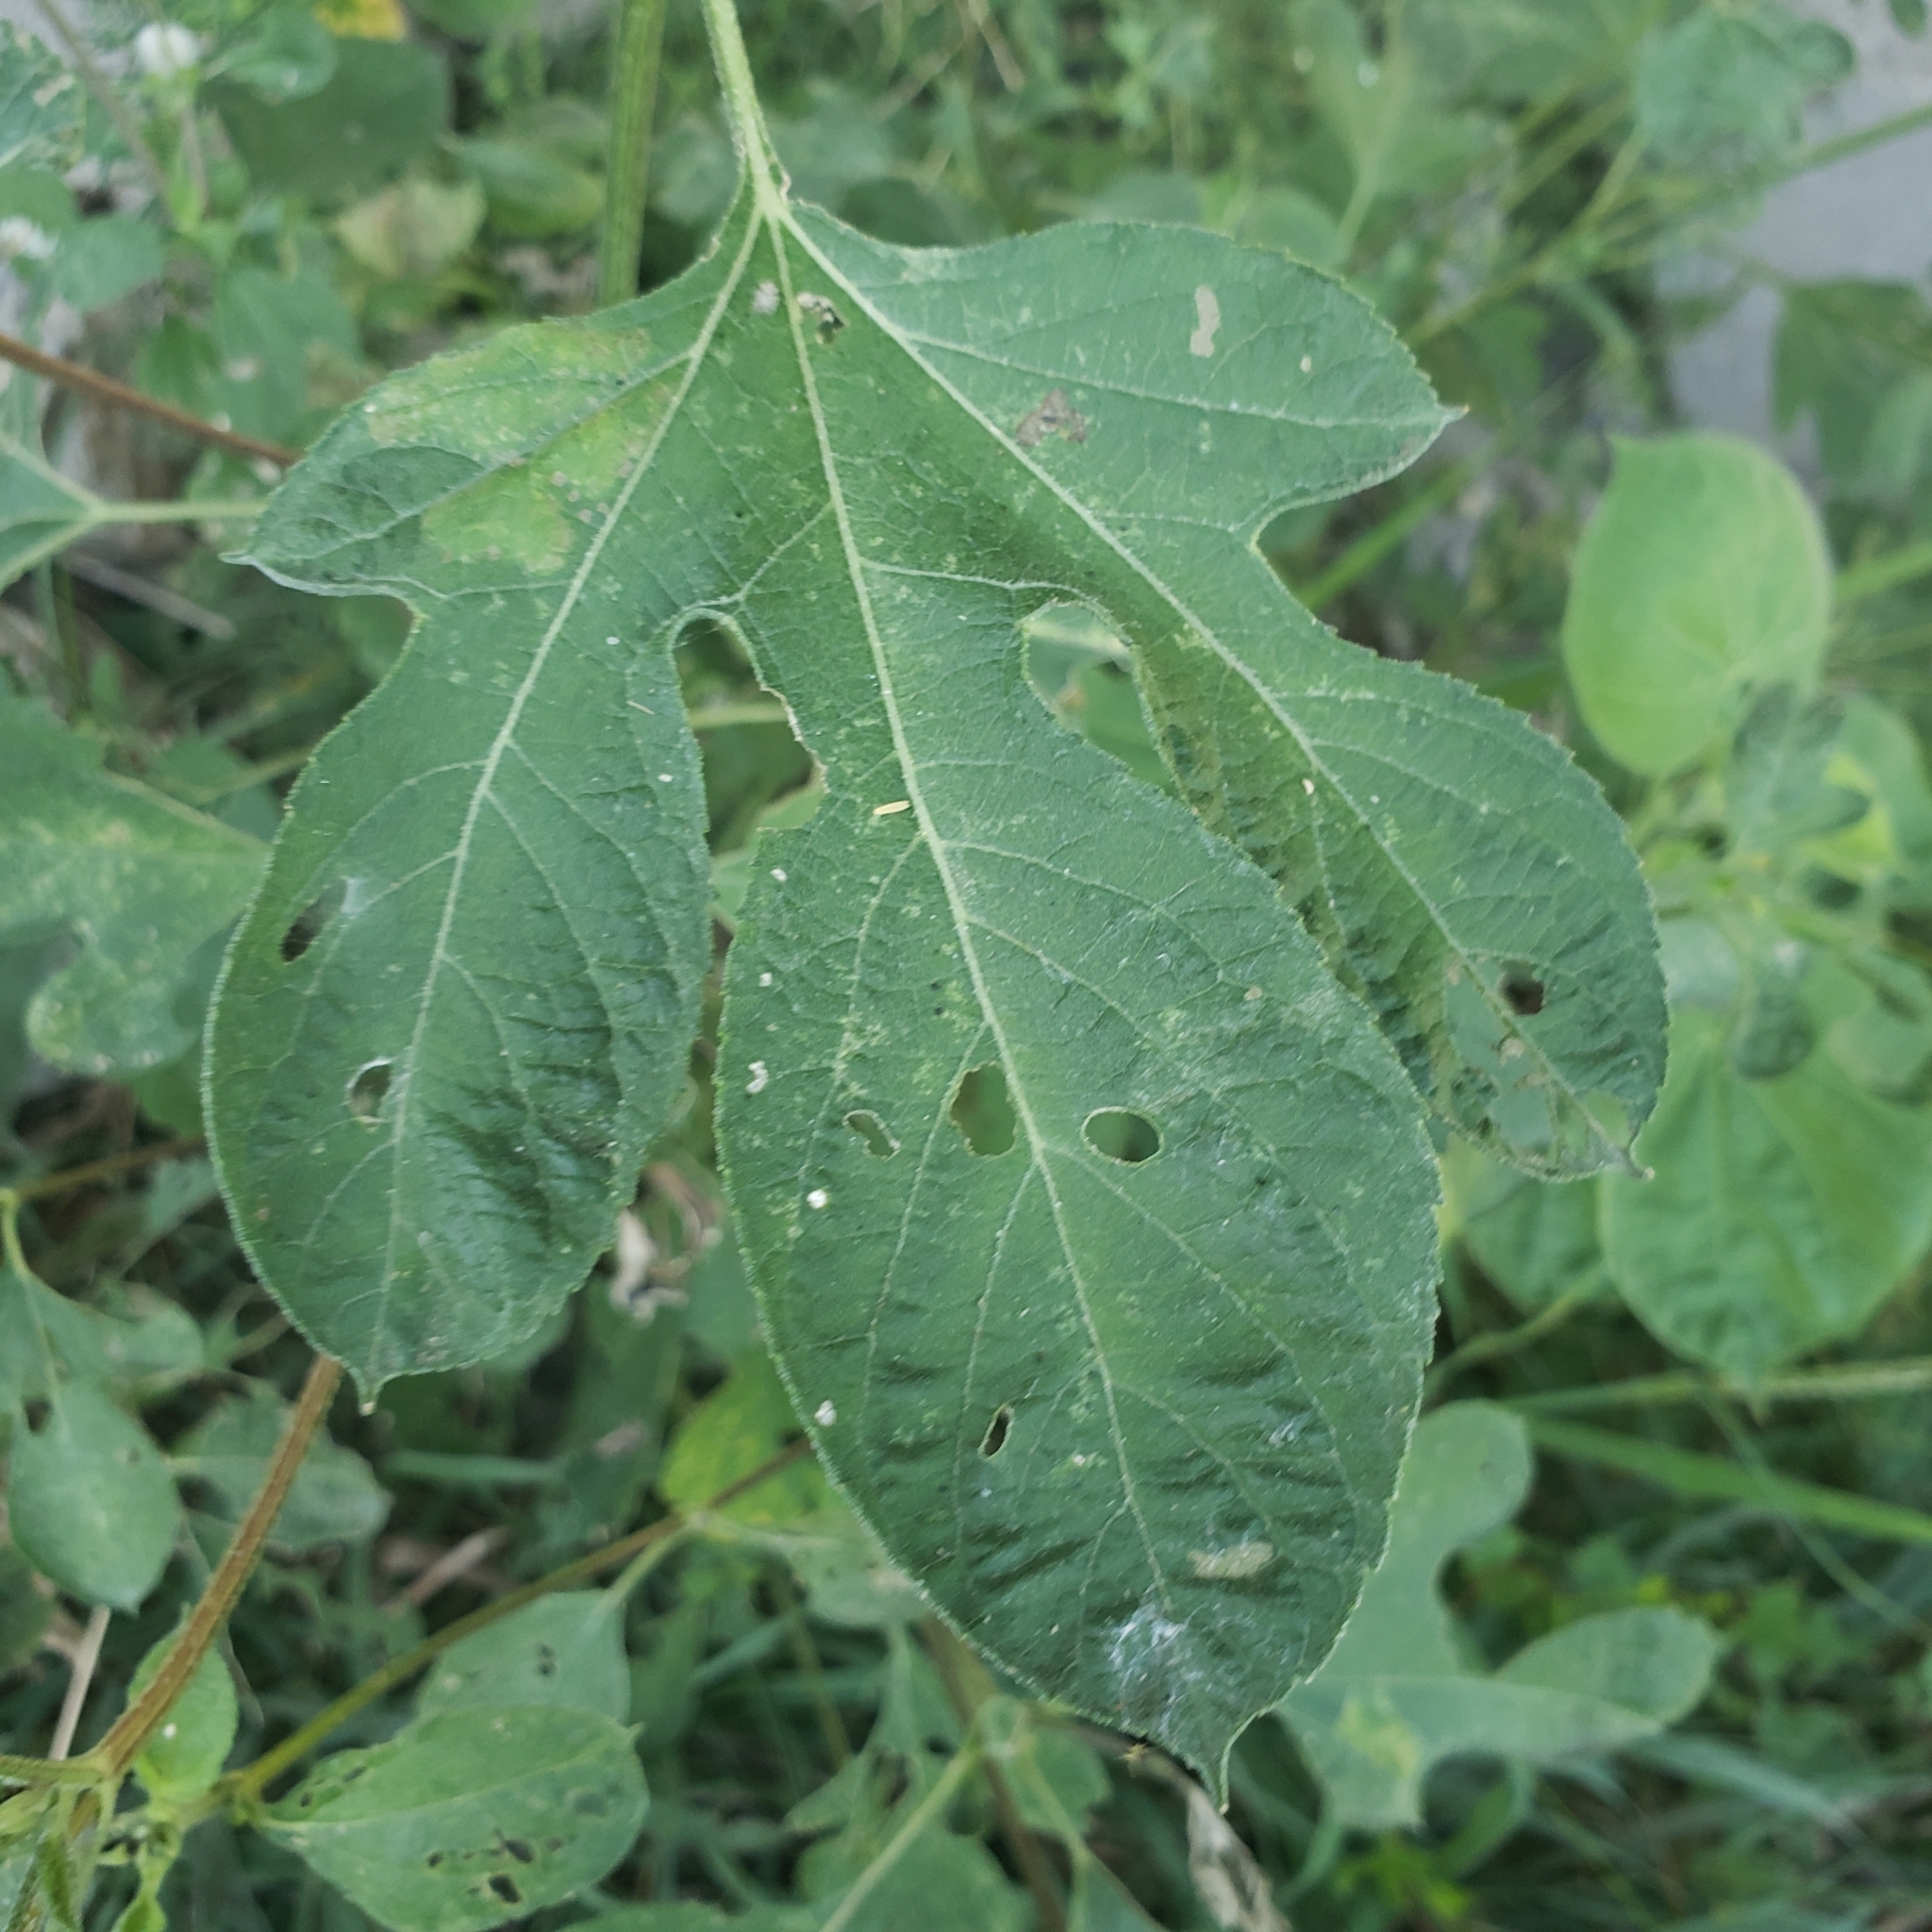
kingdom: Plantae
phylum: Tracheophyta
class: Magnoliopsida
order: Asterales
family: Asteraceae
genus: Ambrosia
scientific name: Ambrosia trifida
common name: Giant ragweed
